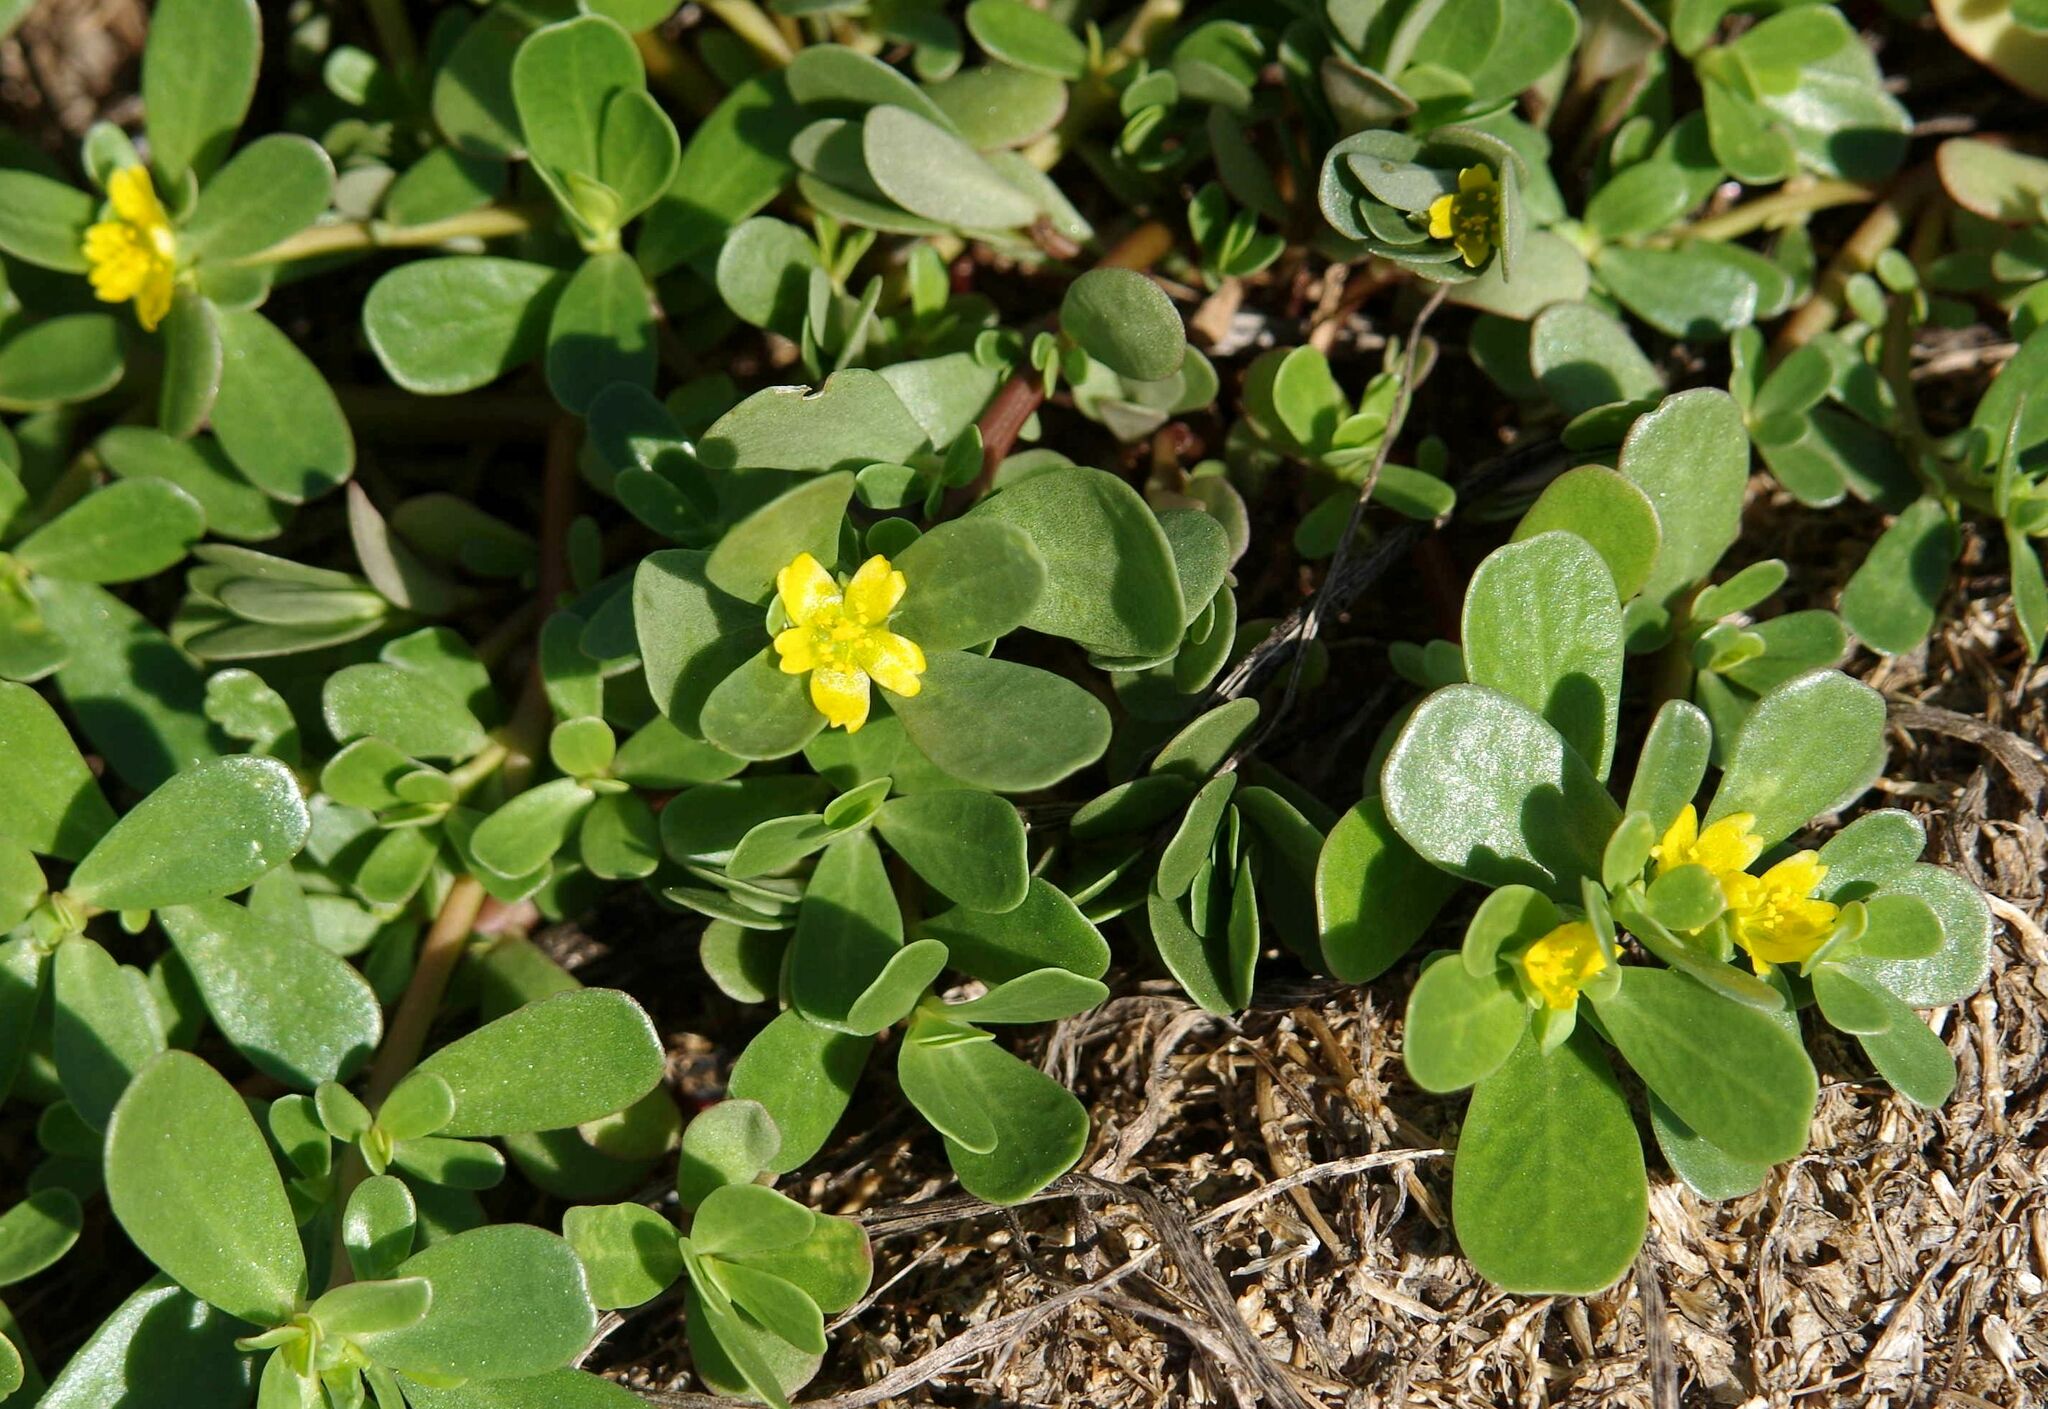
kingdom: Plantae
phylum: Tracheophyta
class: Magnoliopsida
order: Caryophyllales
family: Portulacaceae
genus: Portulaca
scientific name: Portulaca oleracea
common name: Common purslane
